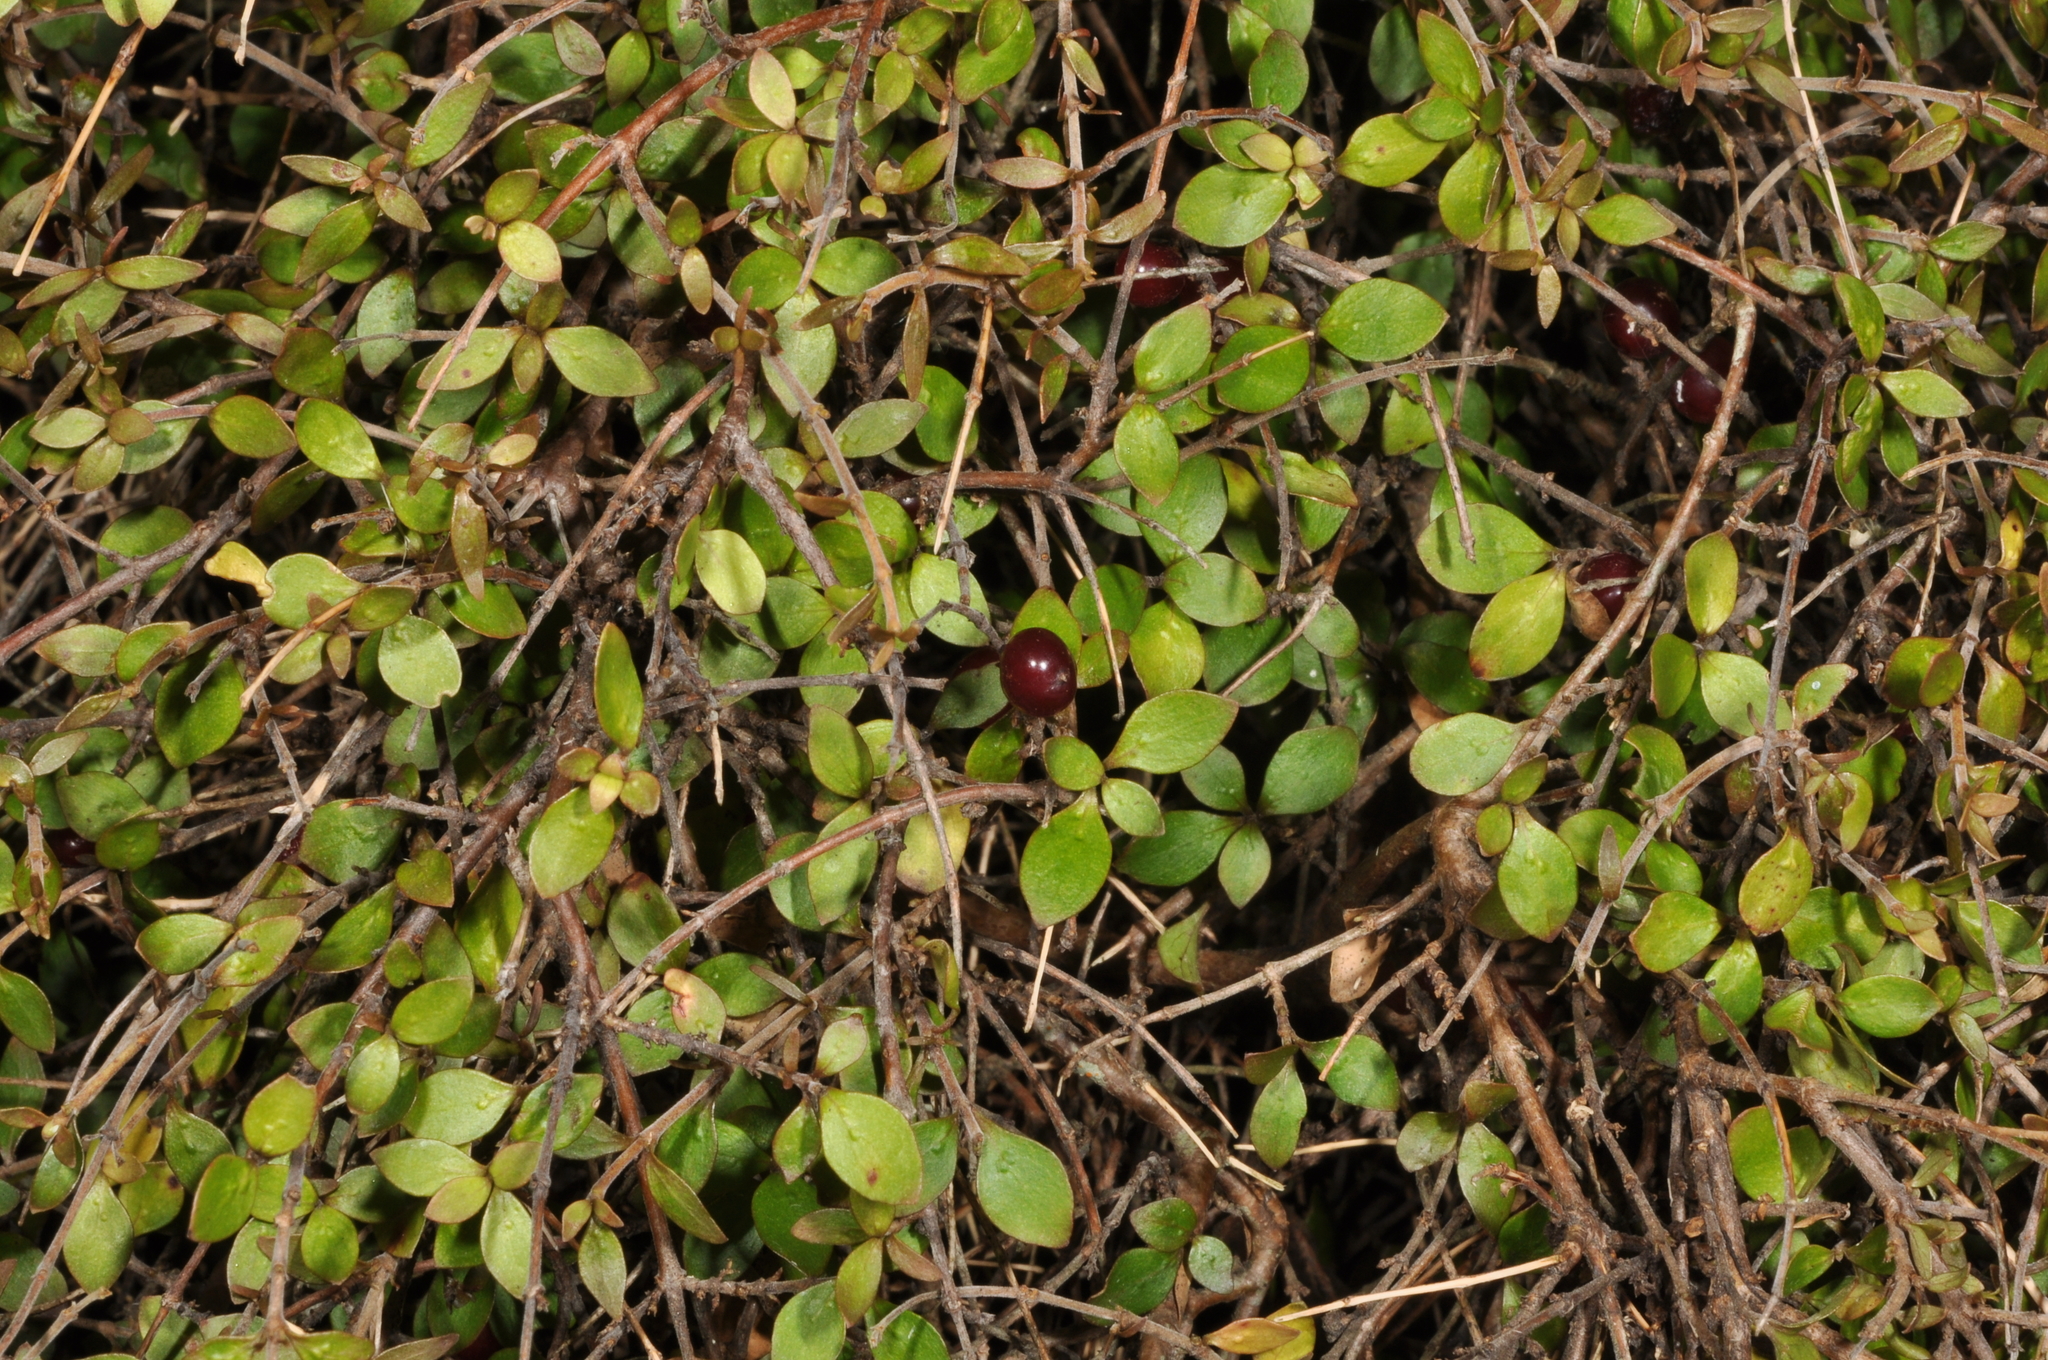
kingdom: Plantae
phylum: Tracheophyta
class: Magnoliopsida
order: Gentianales
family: Rubiaceae
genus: Coprosma
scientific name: Coprosma rhamnoides
